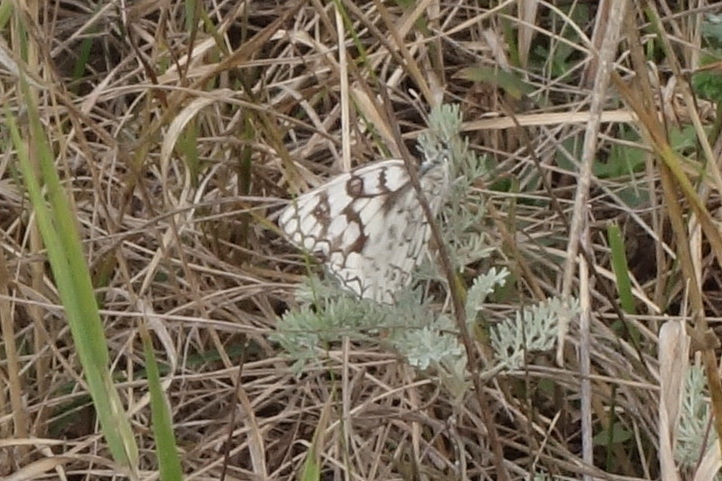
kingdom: Animalia
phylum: Arthropoda
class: Insecta
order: Lepidoptera
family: Nymphalidae
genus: Melanargia
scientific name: Melanargia japygia
